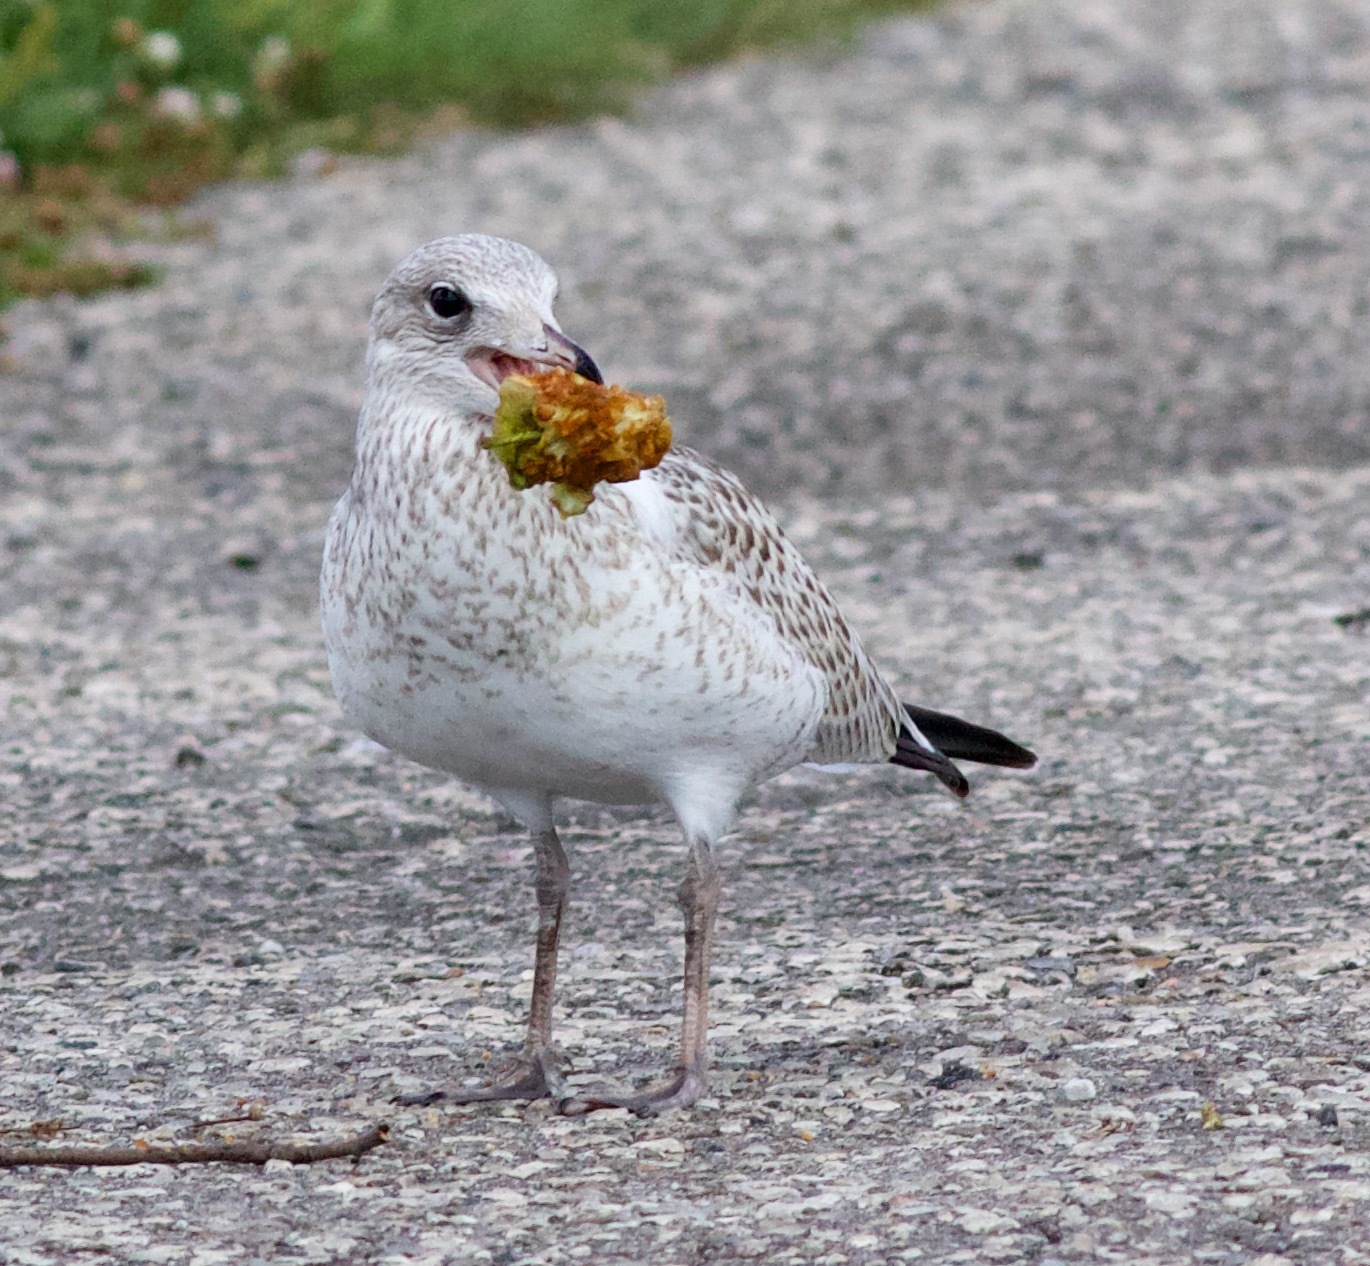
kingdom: Animalia
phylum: Chordata
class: Aves
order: Charadriiformes
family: Laridae
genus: Larus
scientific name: Larus delawarensis
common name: Ring-billed gull
